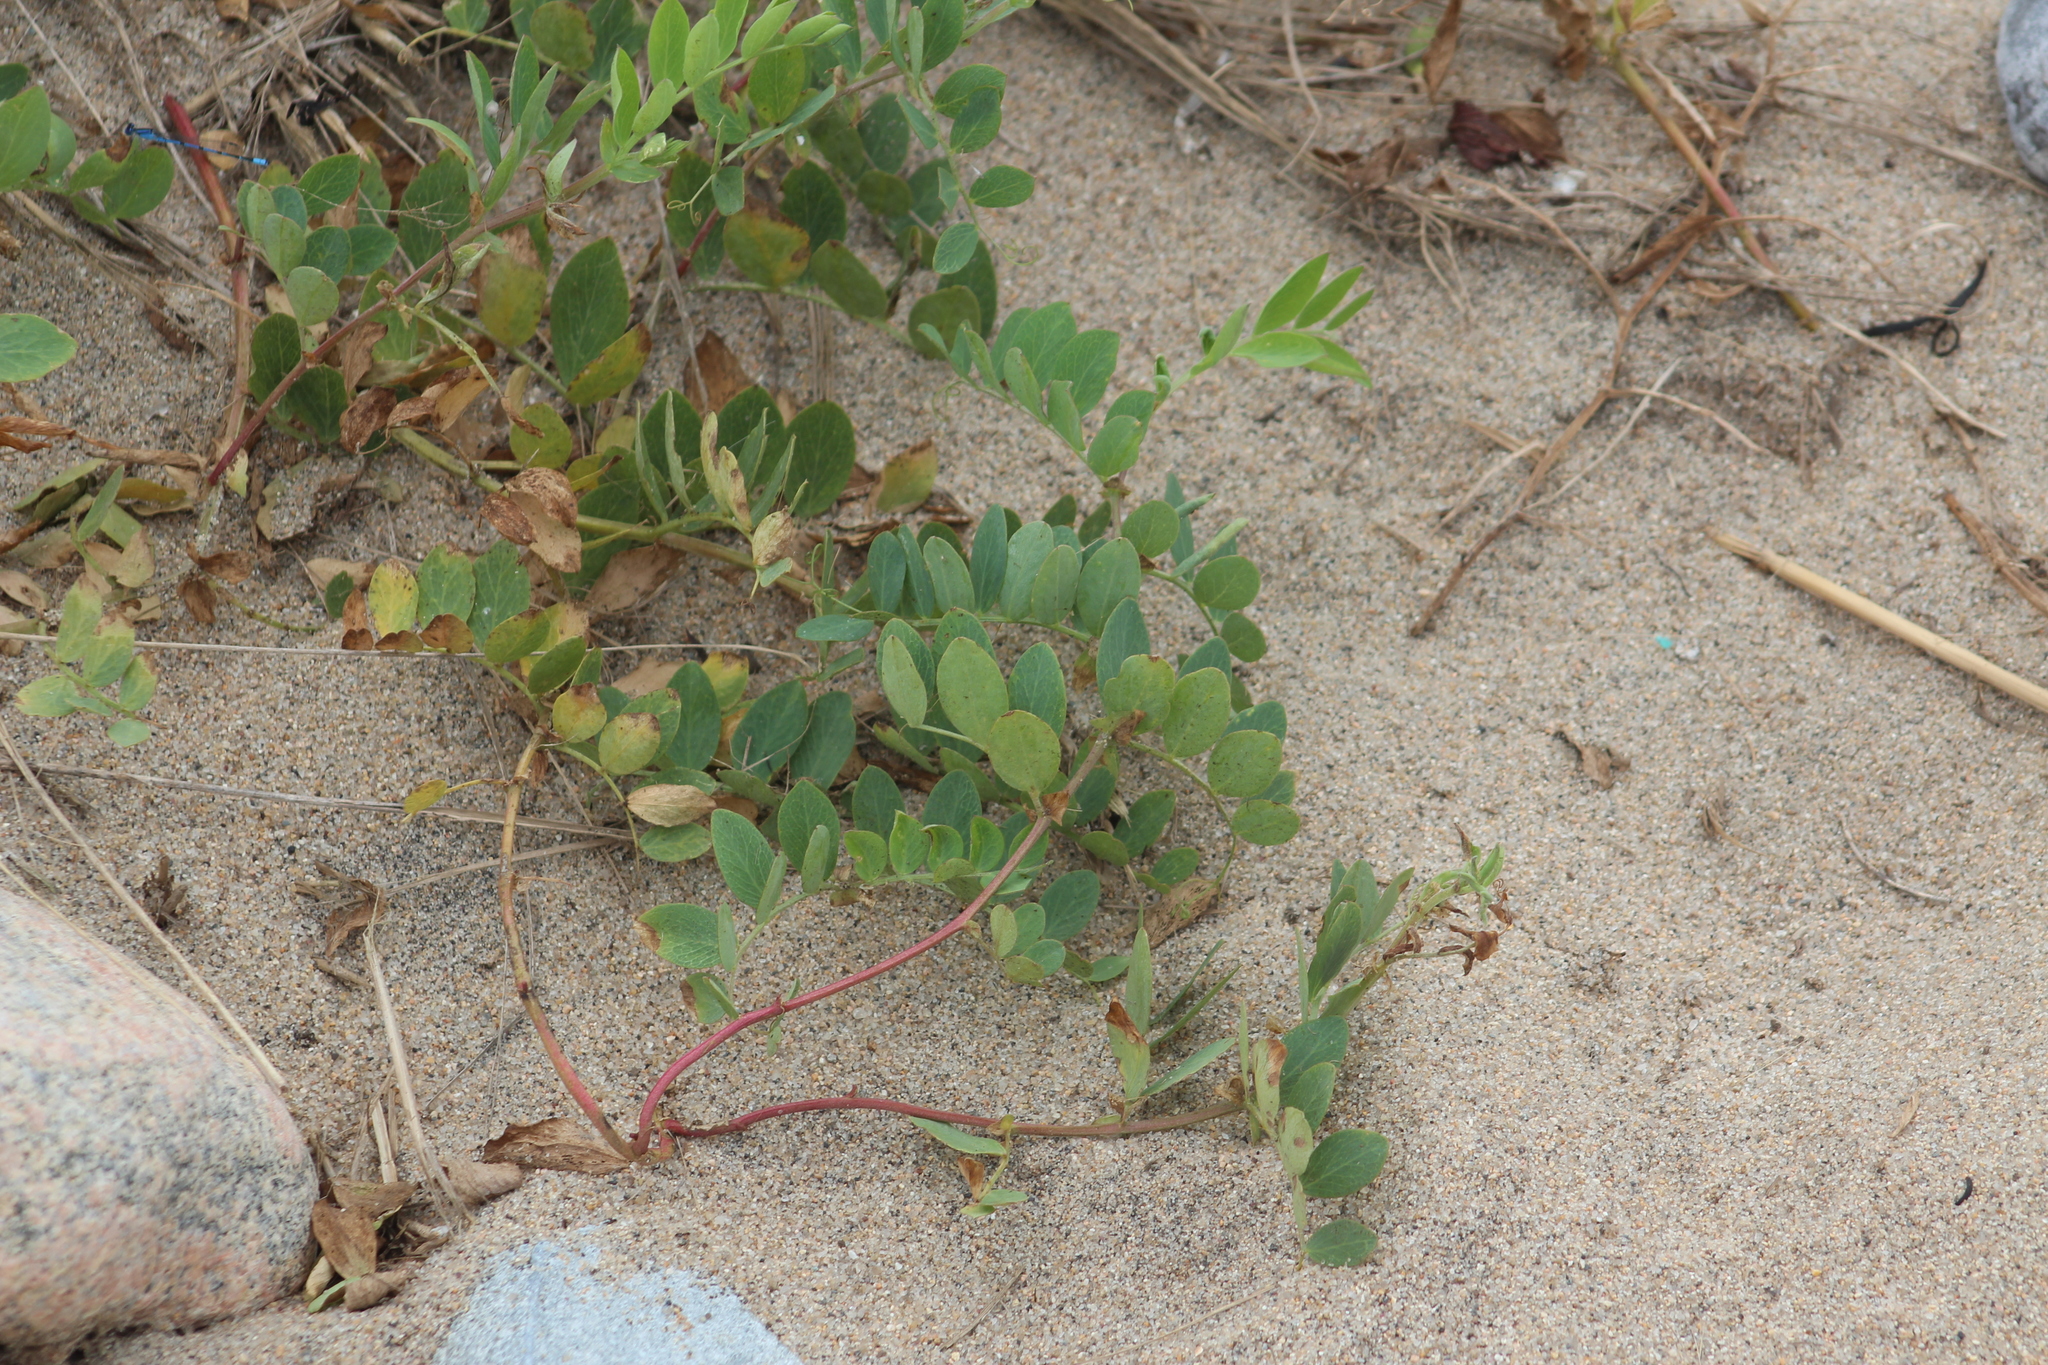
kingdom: Plantae
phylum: Tracheophyta
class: Magnoliopsida
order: Fabales
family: Fabaceae
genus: Lathyrus
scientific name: Lathyrus japonicus
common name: Sea pea
